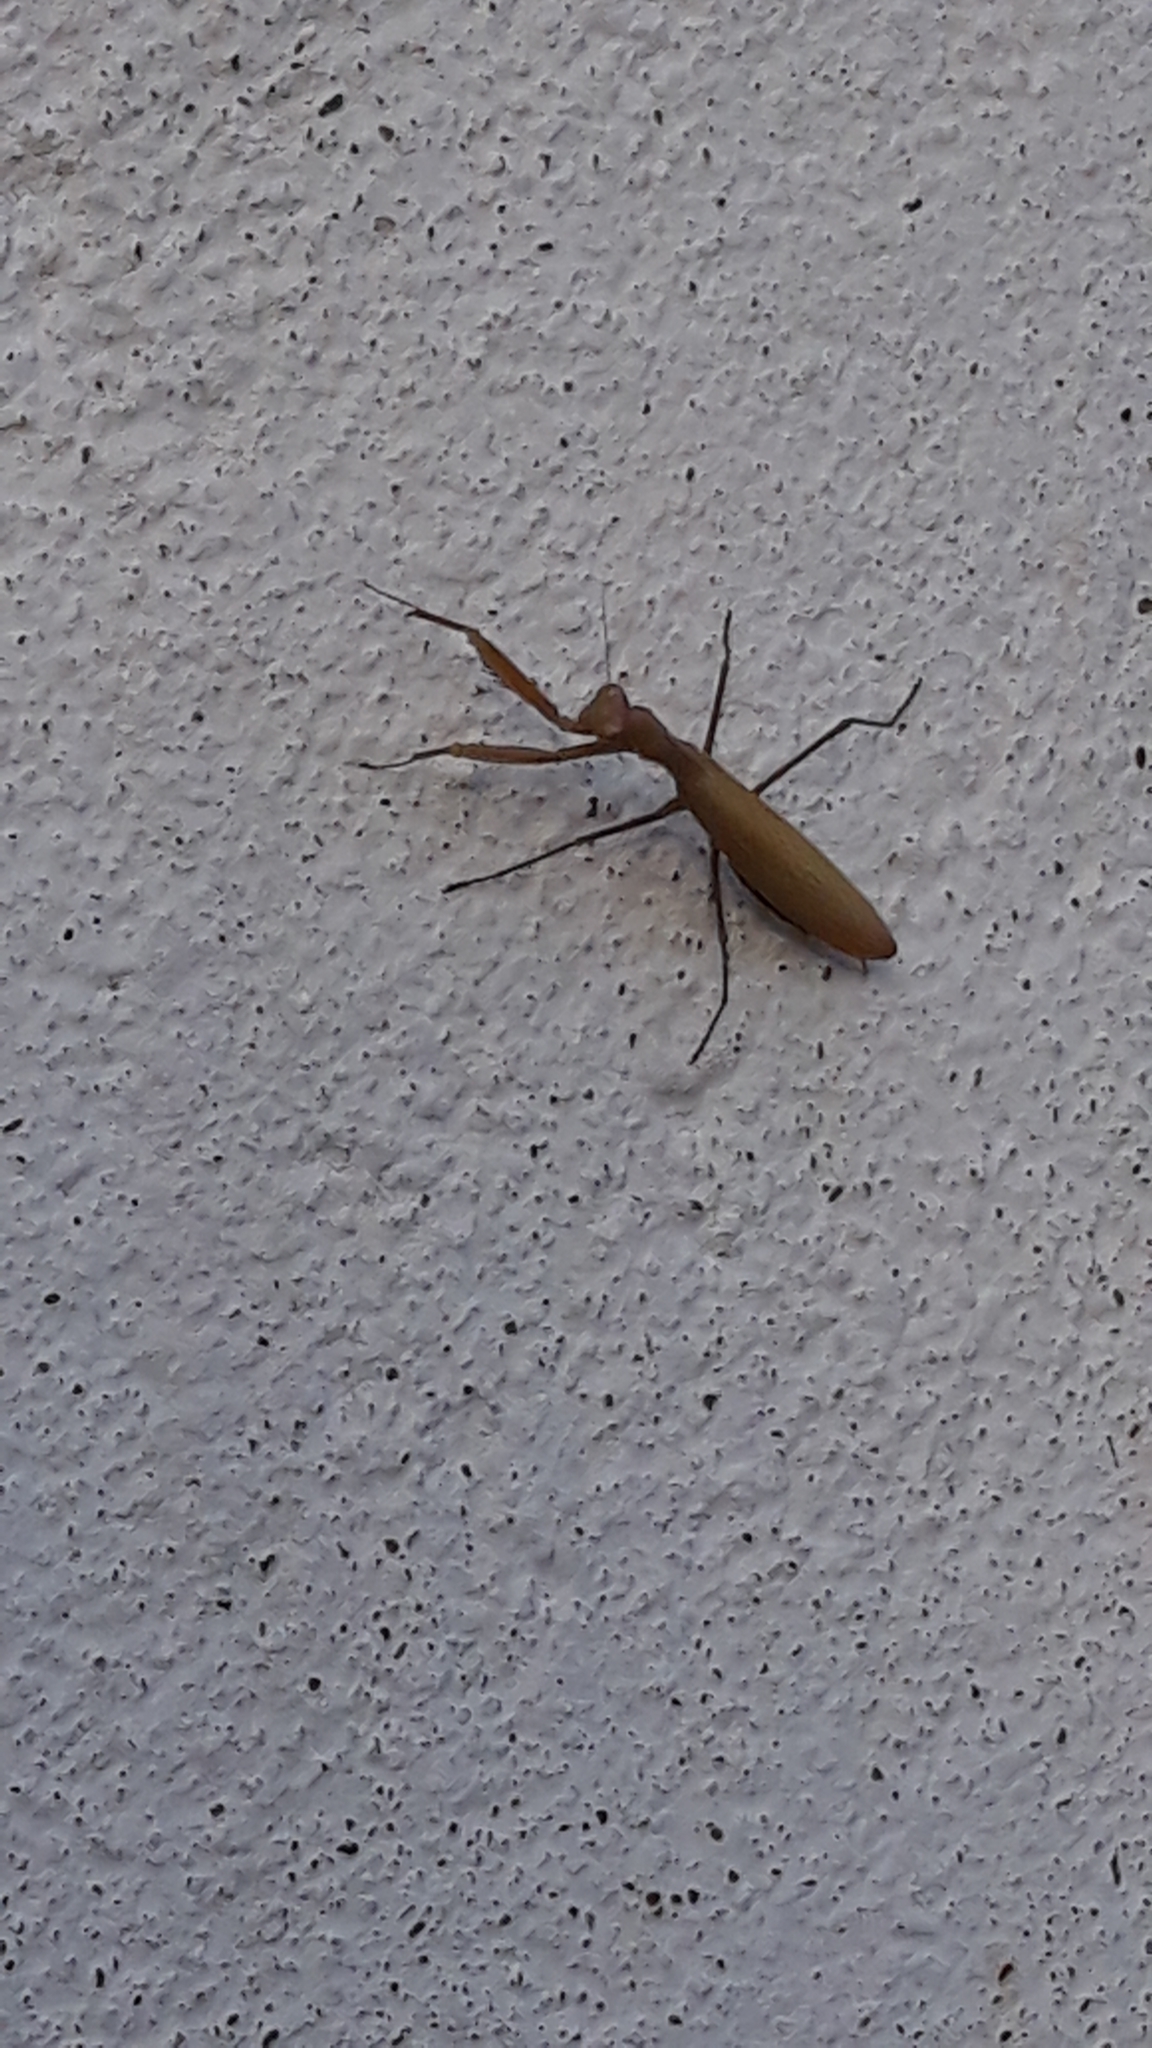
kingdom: Animalia
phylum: Arthropoda
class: Insecta
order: Mantodea
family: Mantidae
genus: Mantis
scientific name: Mantis religiosa
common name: Praying mantis
